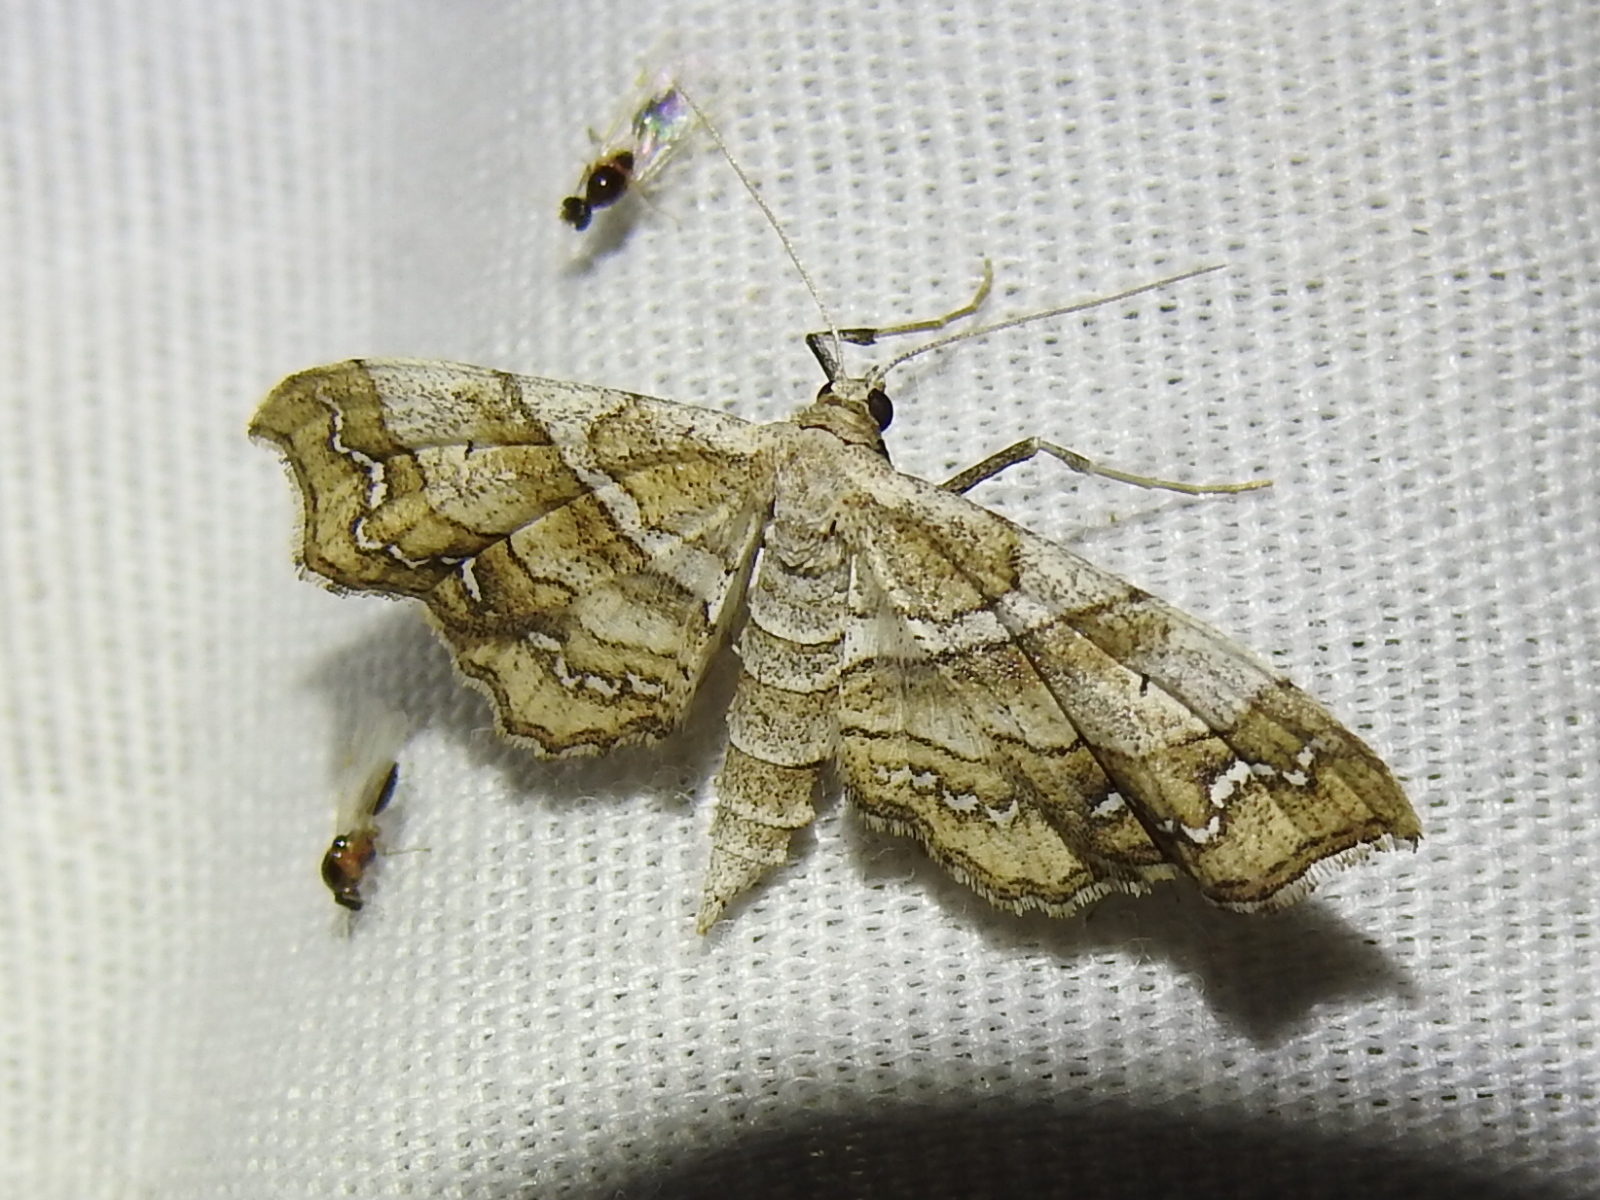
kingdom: Animalia
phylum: Arthropoda
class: Insecta
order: Lepidoptera
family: Geometridae
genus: Odontoptila
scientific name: Odontoptila obrimo
